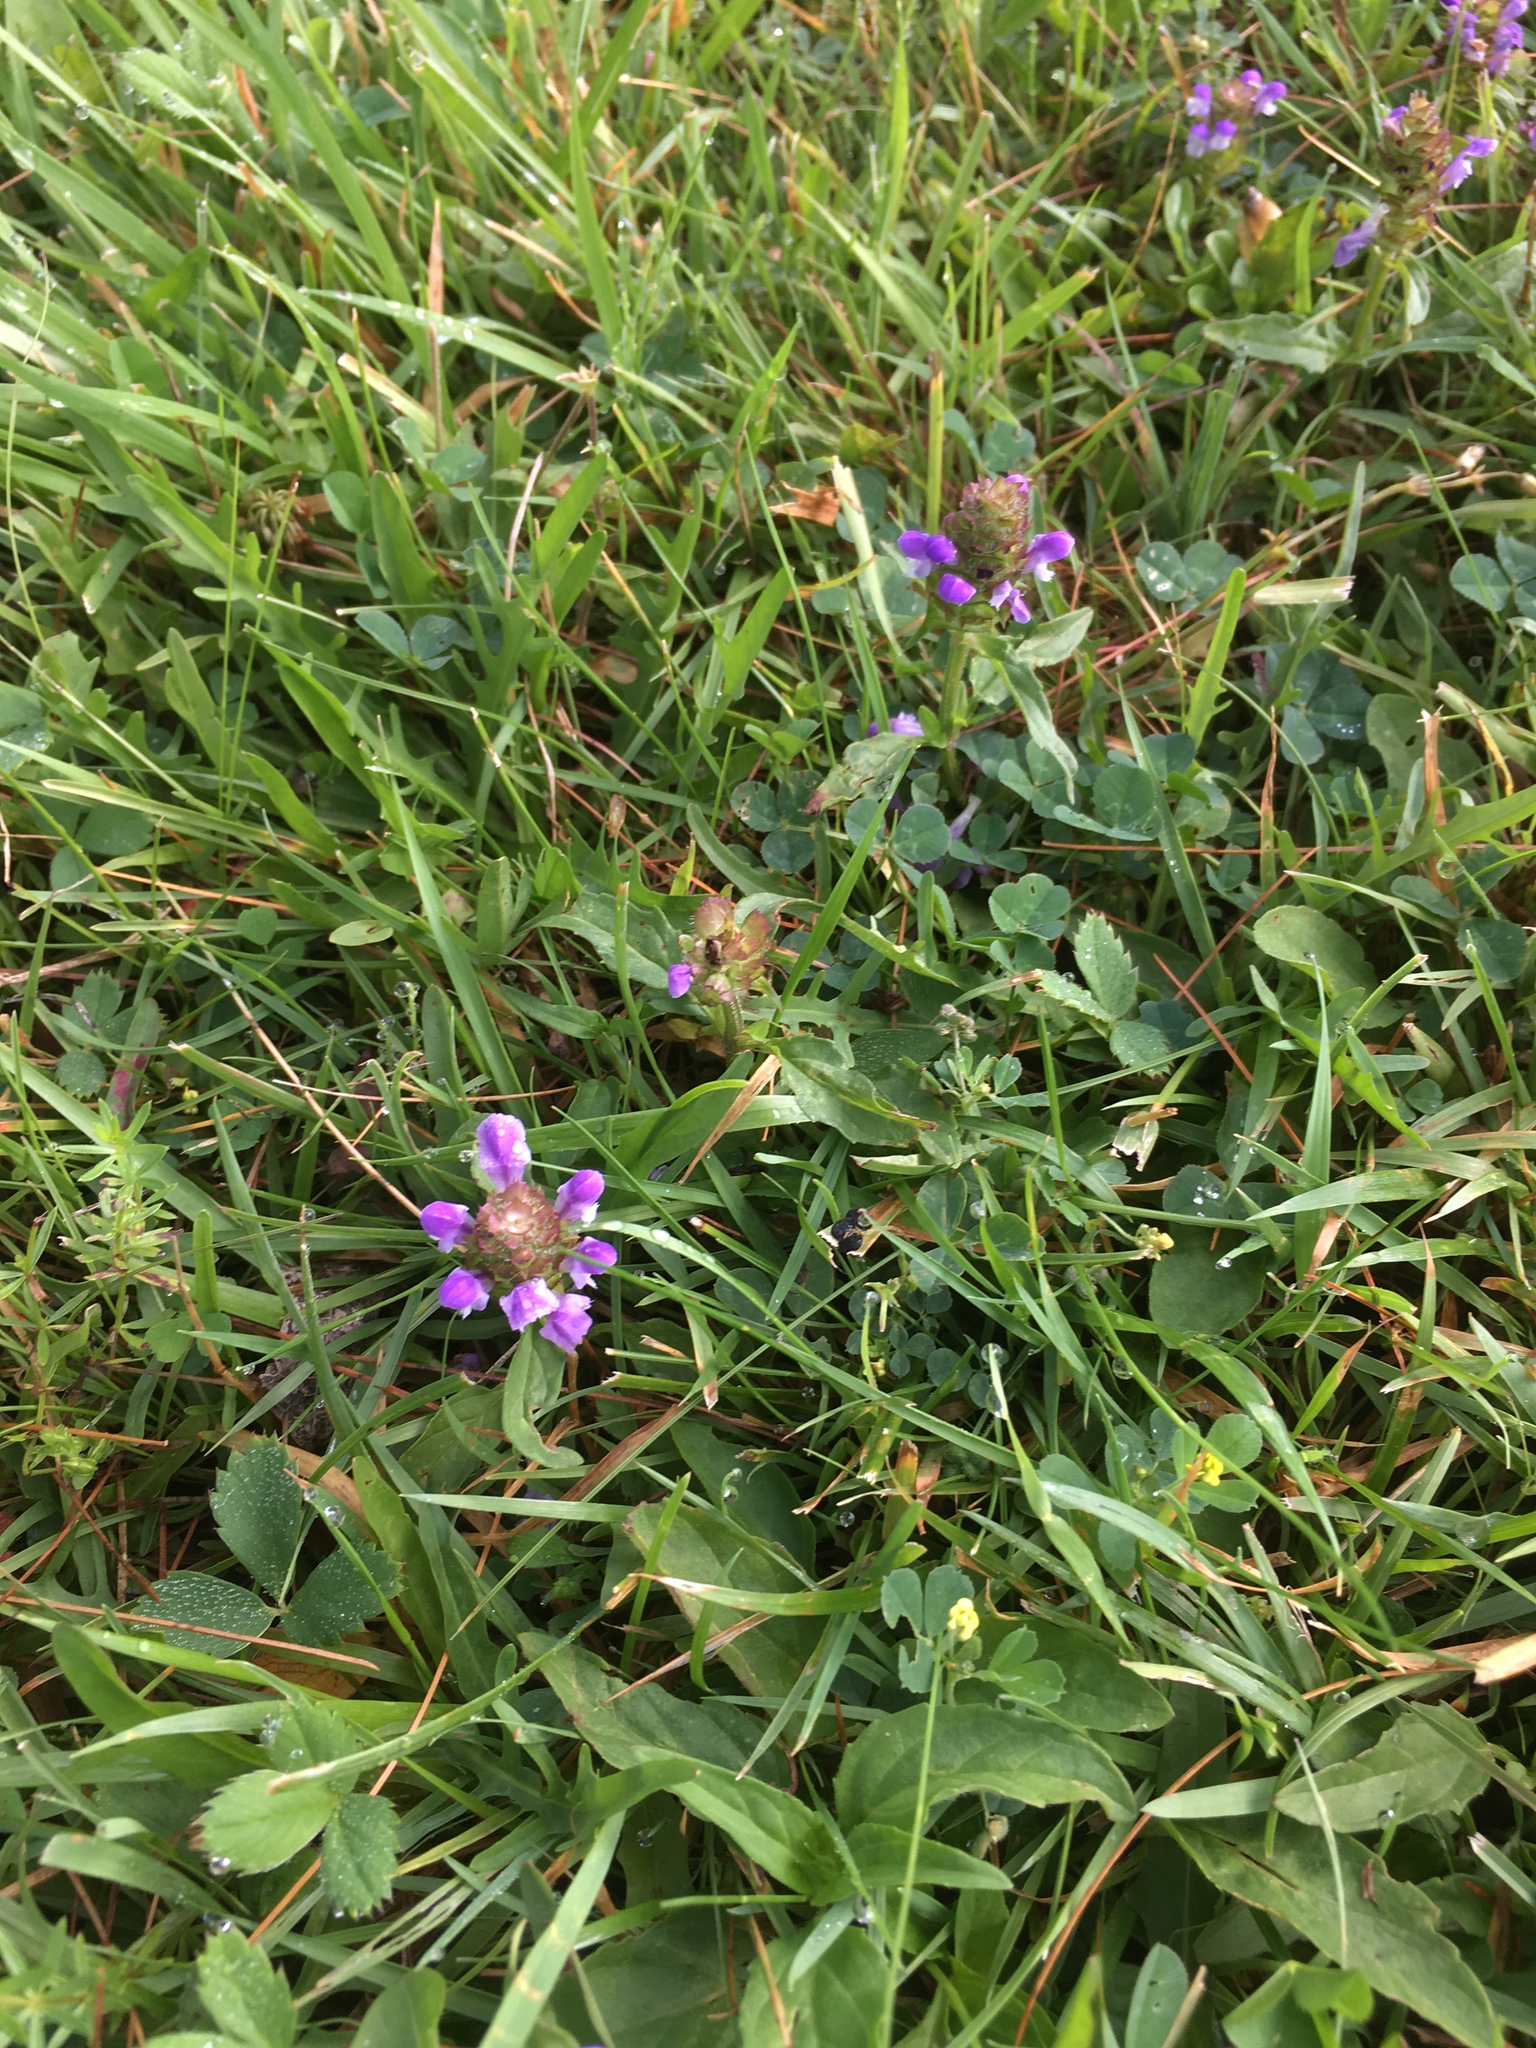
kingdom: Plantae
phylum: Tracheophyta
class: Magnoliopsida
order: Lamiales
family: Lamiaceae
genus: Prunella
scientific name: Prunella vulgaris
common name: Heal-all
